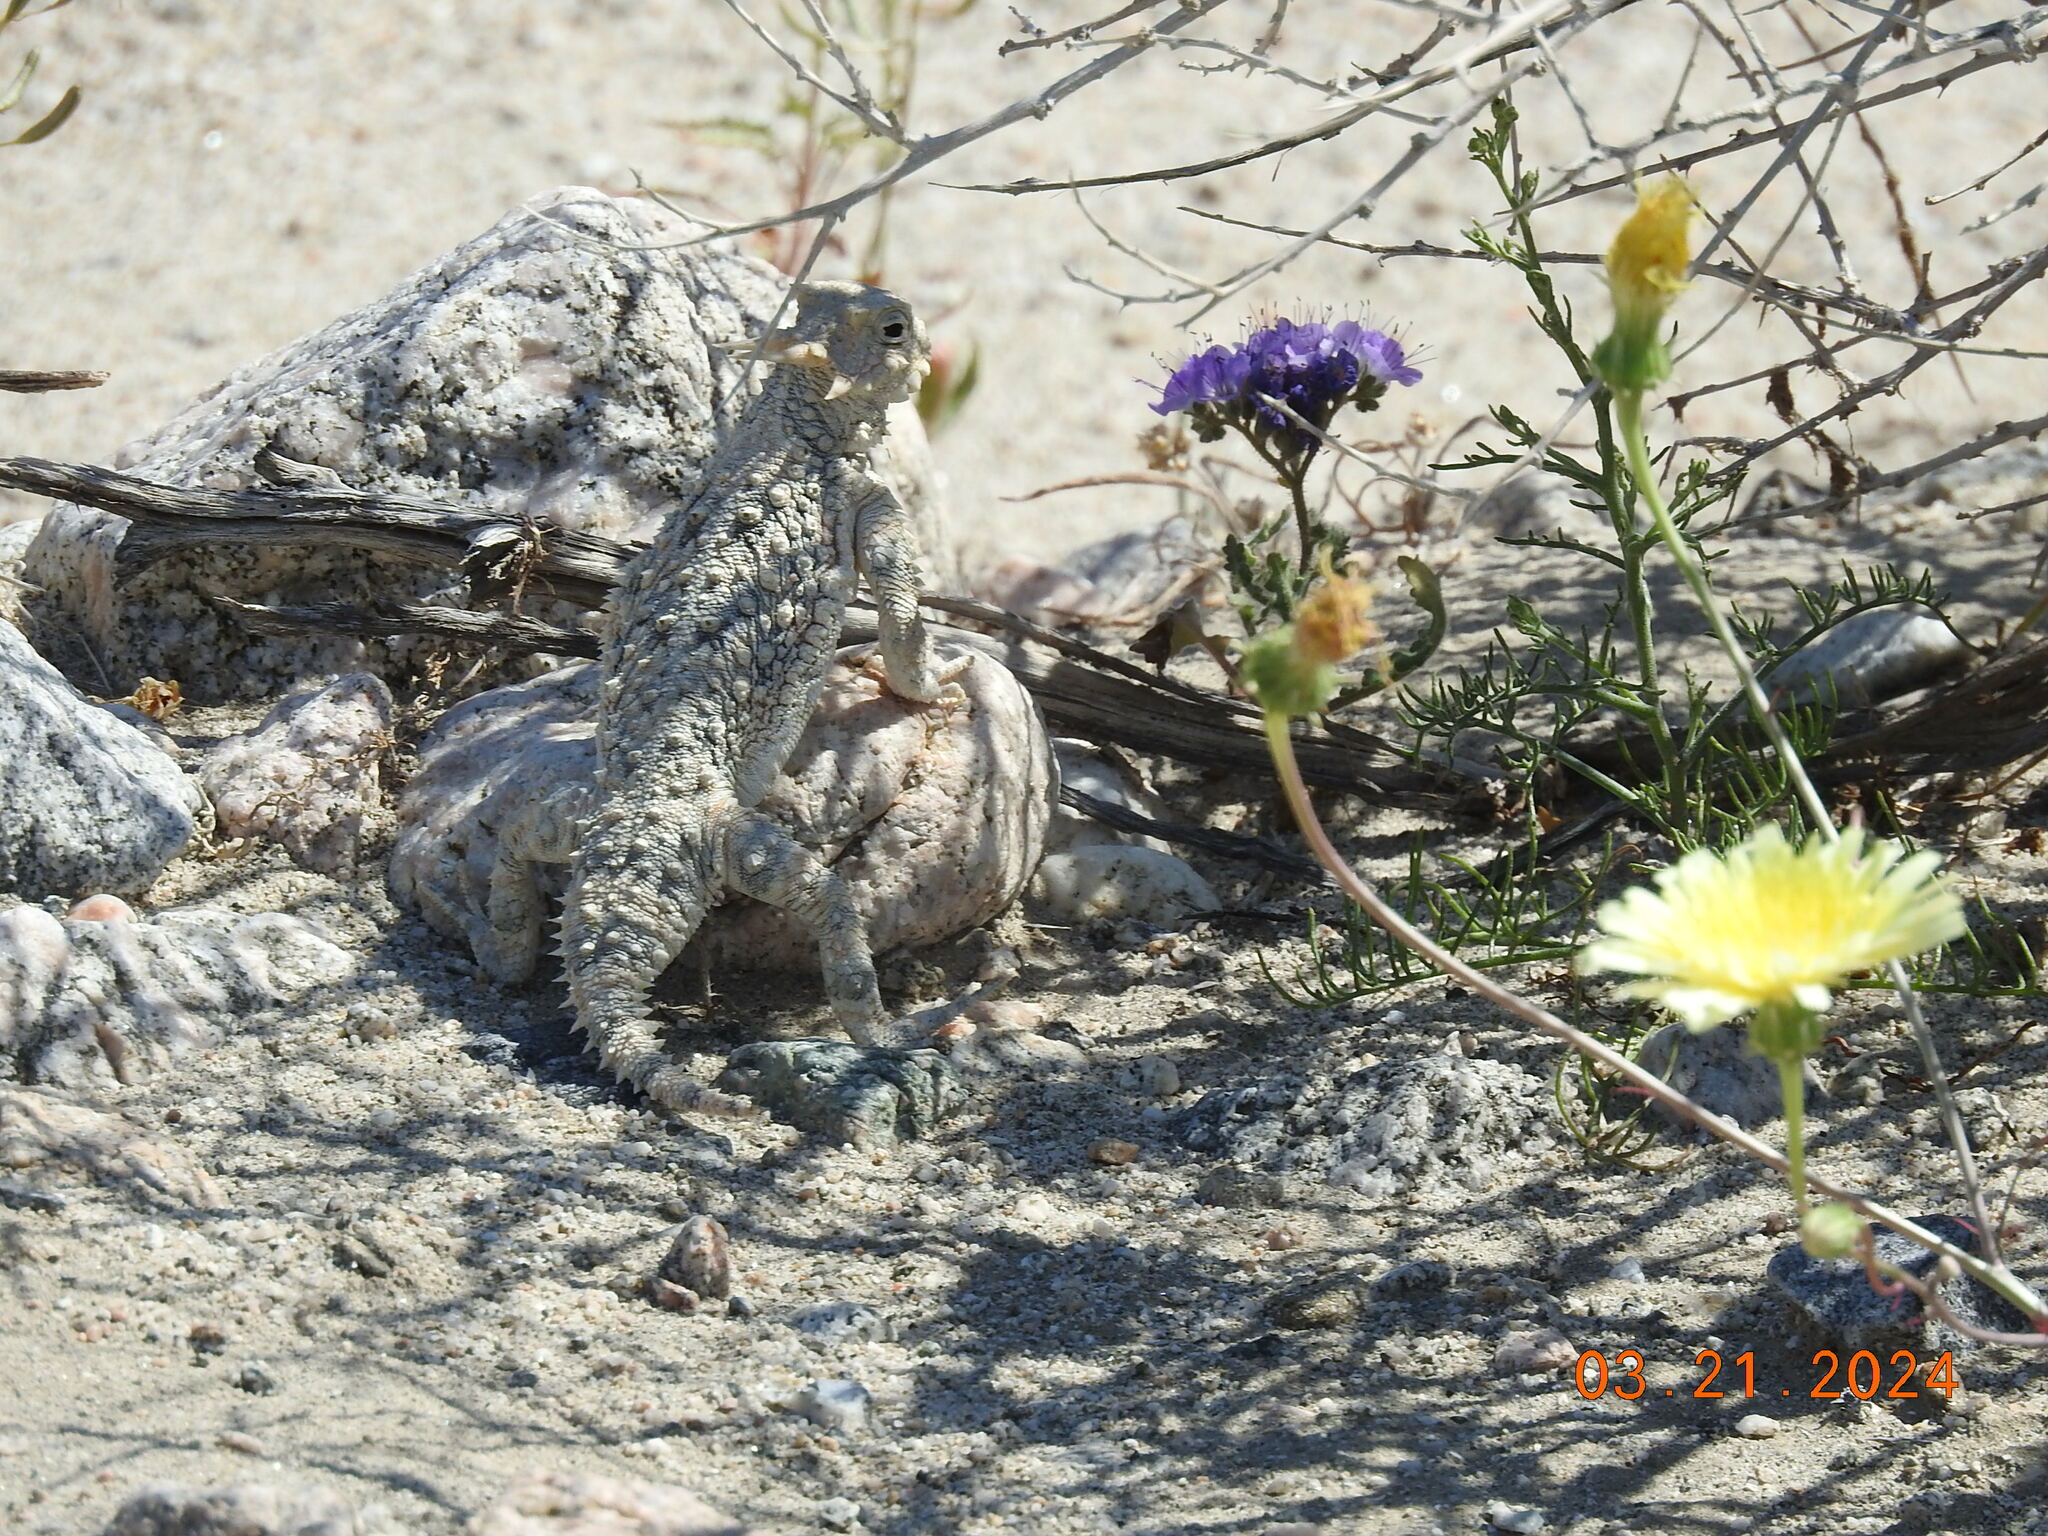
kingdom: Animalia
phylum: Chordata
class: Squamata
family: Phrynosomatidae
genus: Phrynosoma
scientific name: Phrynosoma platyrhinos
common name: Desert horned lizard
